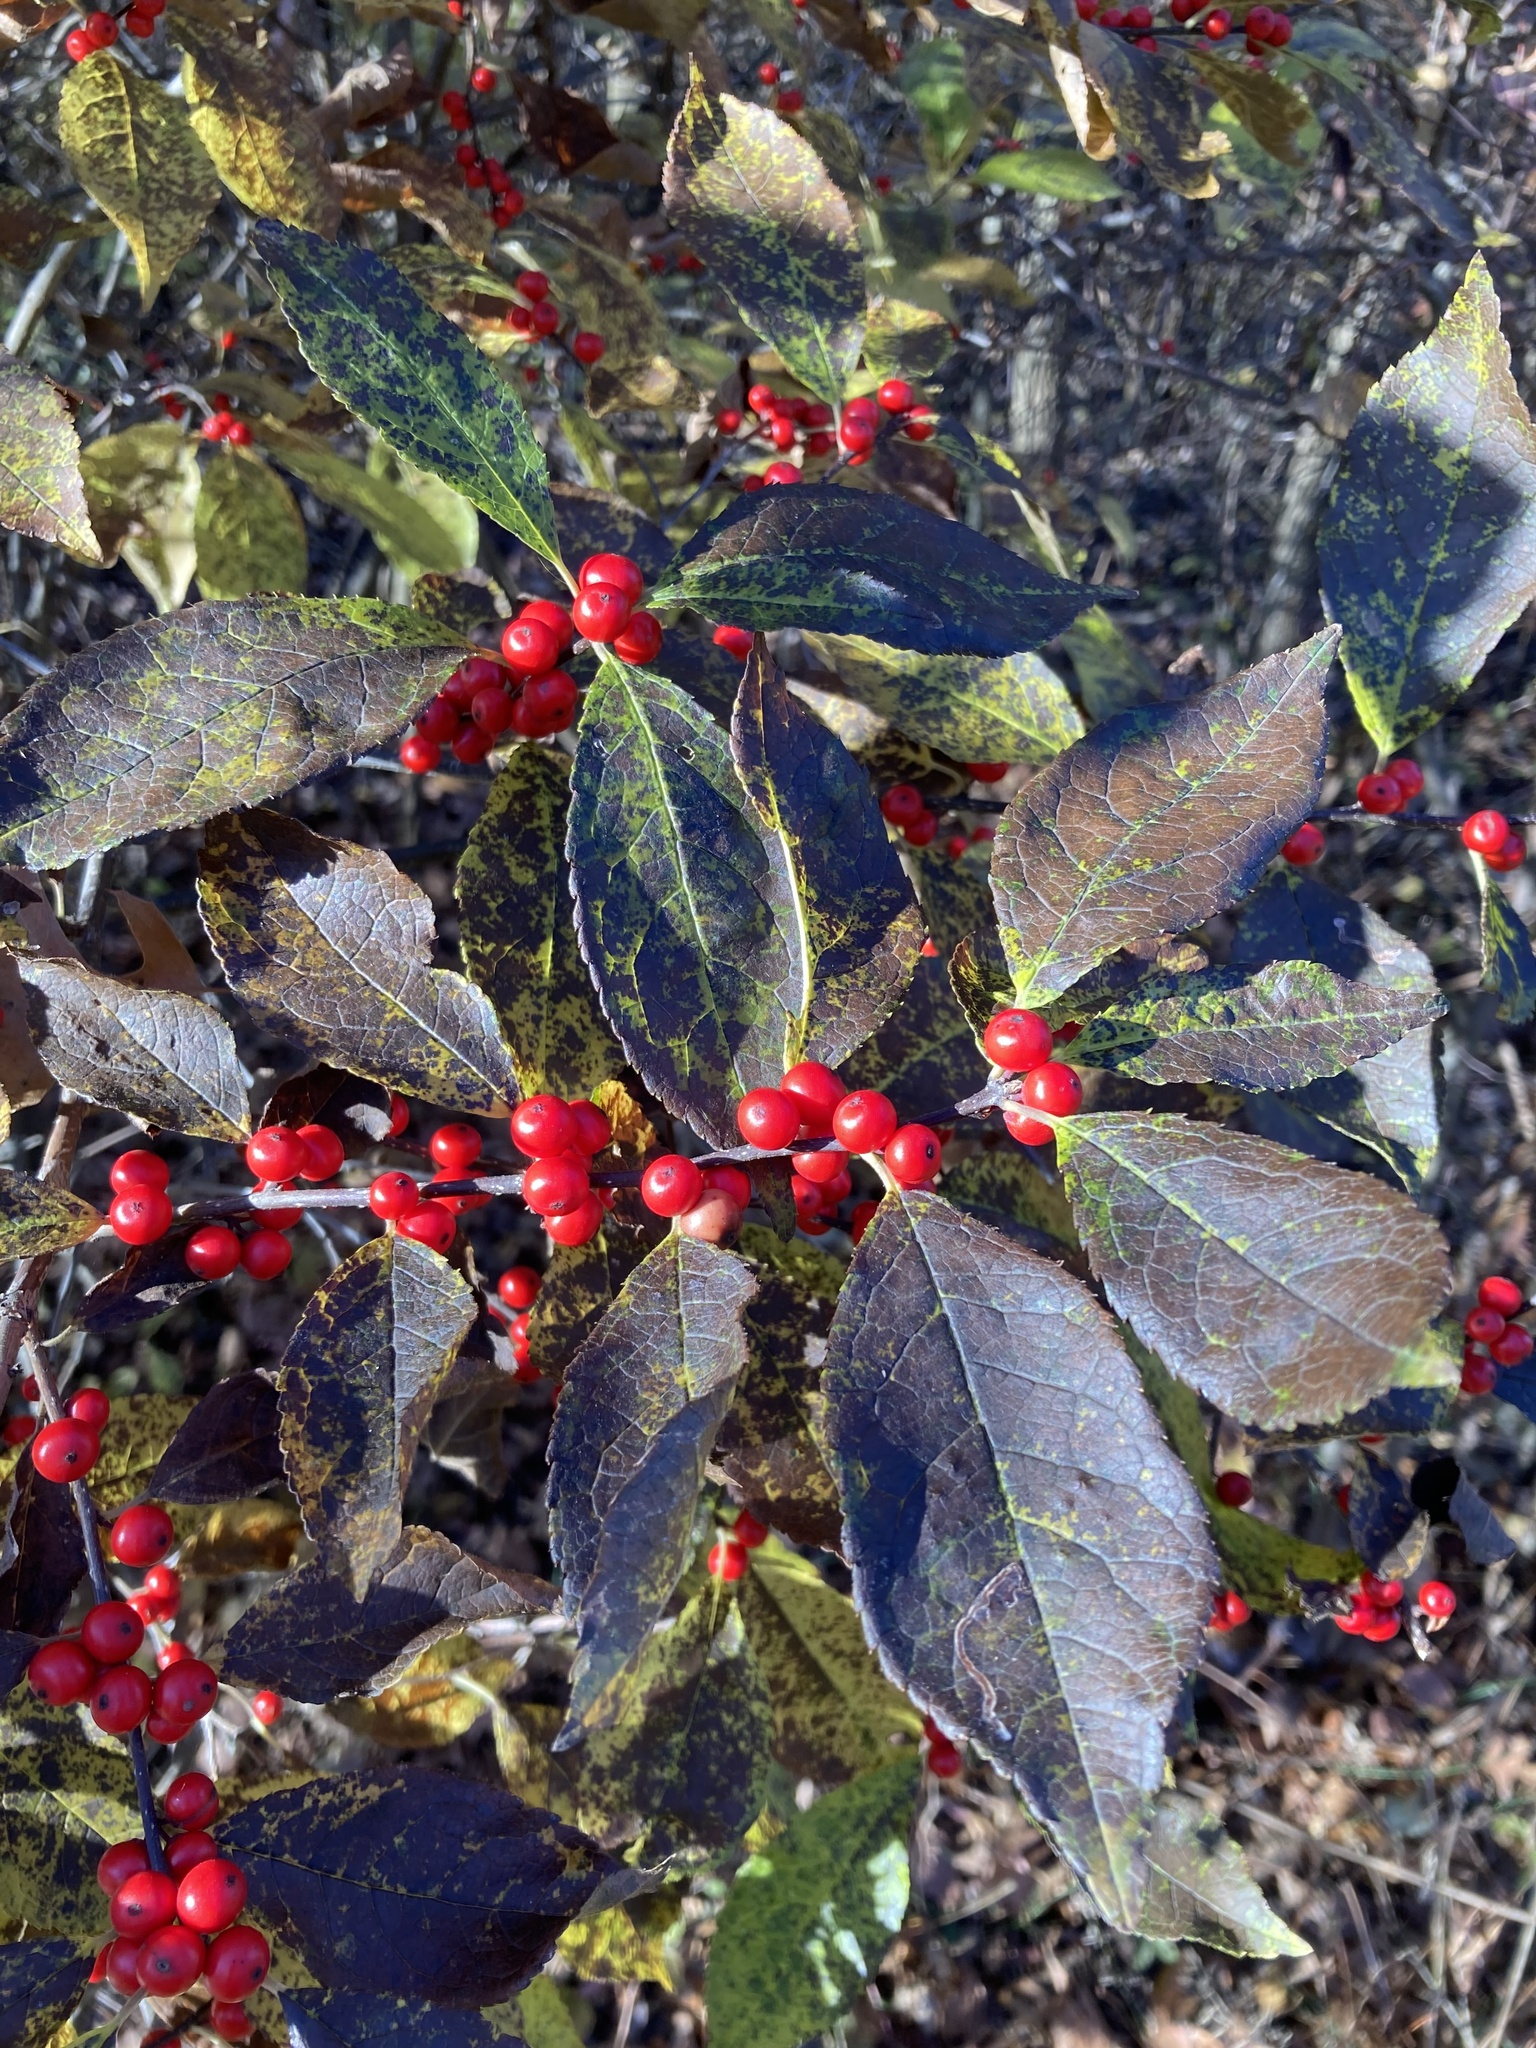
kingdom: Plantae
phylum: Tracheophyta
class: Magnoliopsida
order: Aquifoliales
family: Aquifoliaceae
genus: Ilex
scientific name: Ilex verticillata
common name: Virginia winterberry
